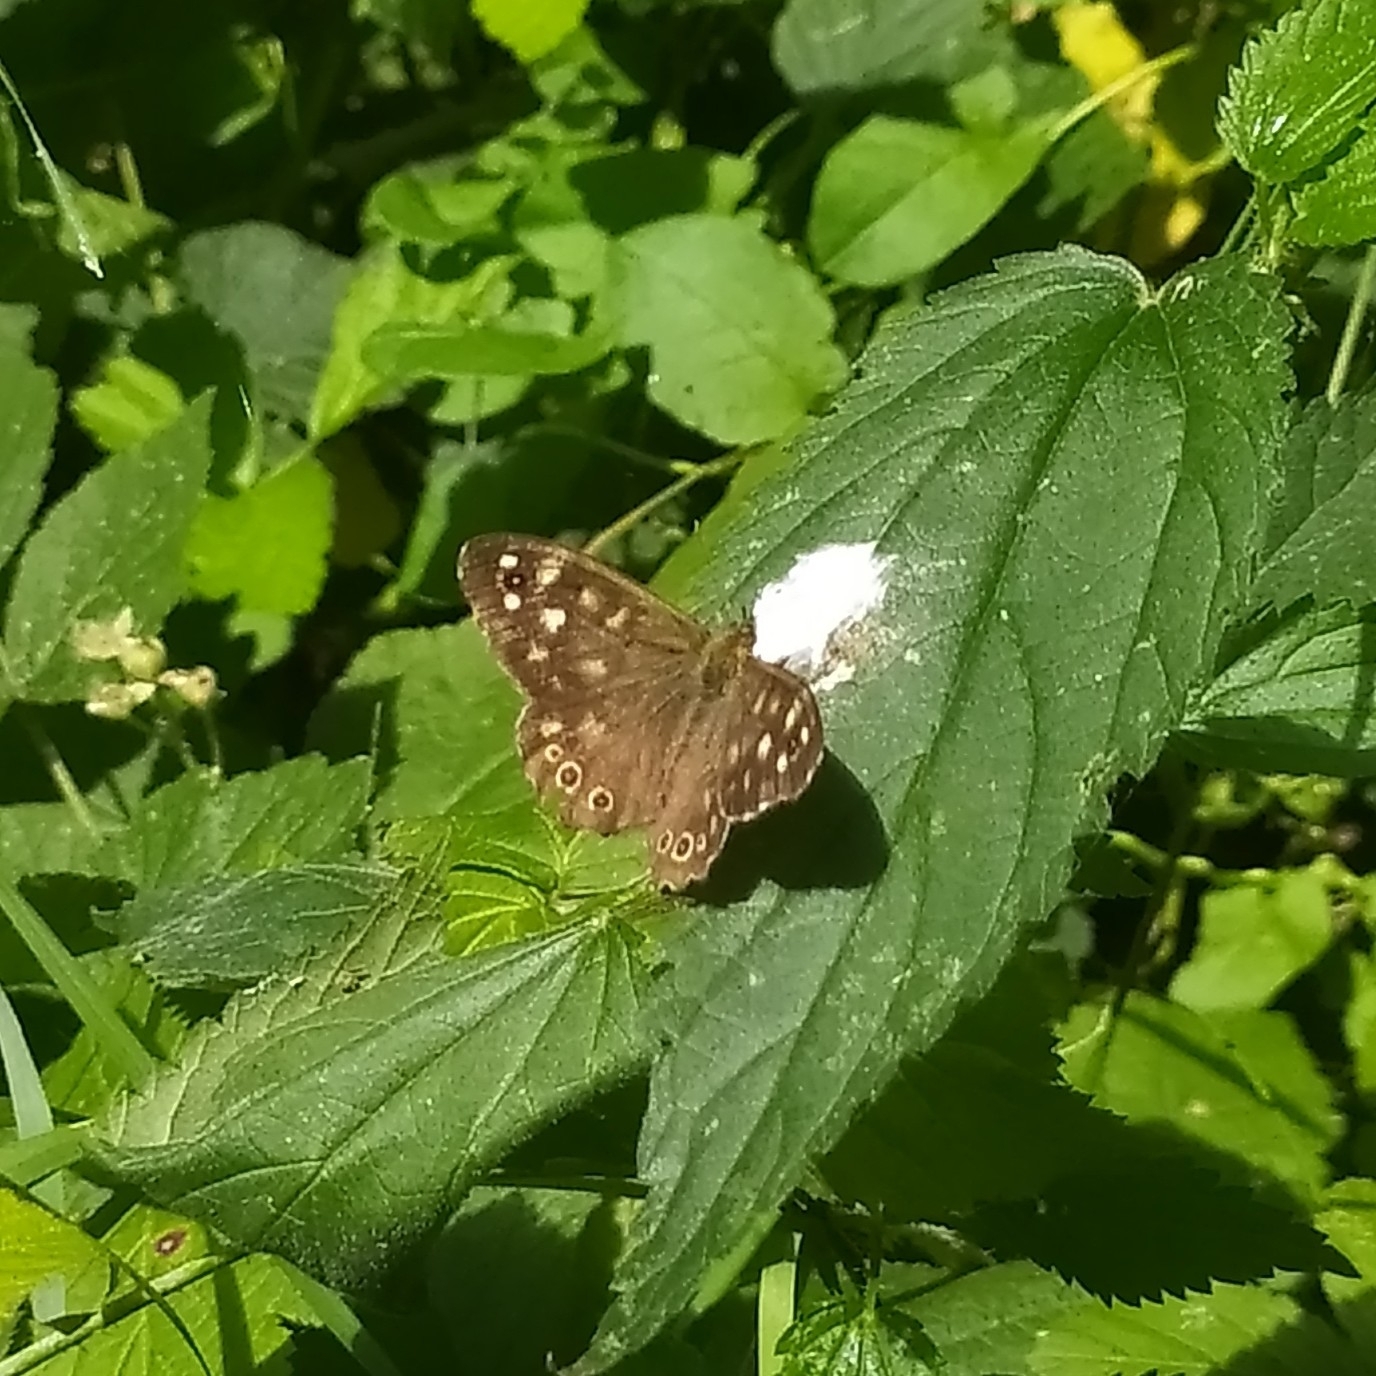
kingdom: Animalia
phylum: Arthropoda
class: Insecta
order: Lepidoptera
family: Nymphalidae
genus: Pararge
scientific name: Pararge aegeria
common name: Speckled wood
